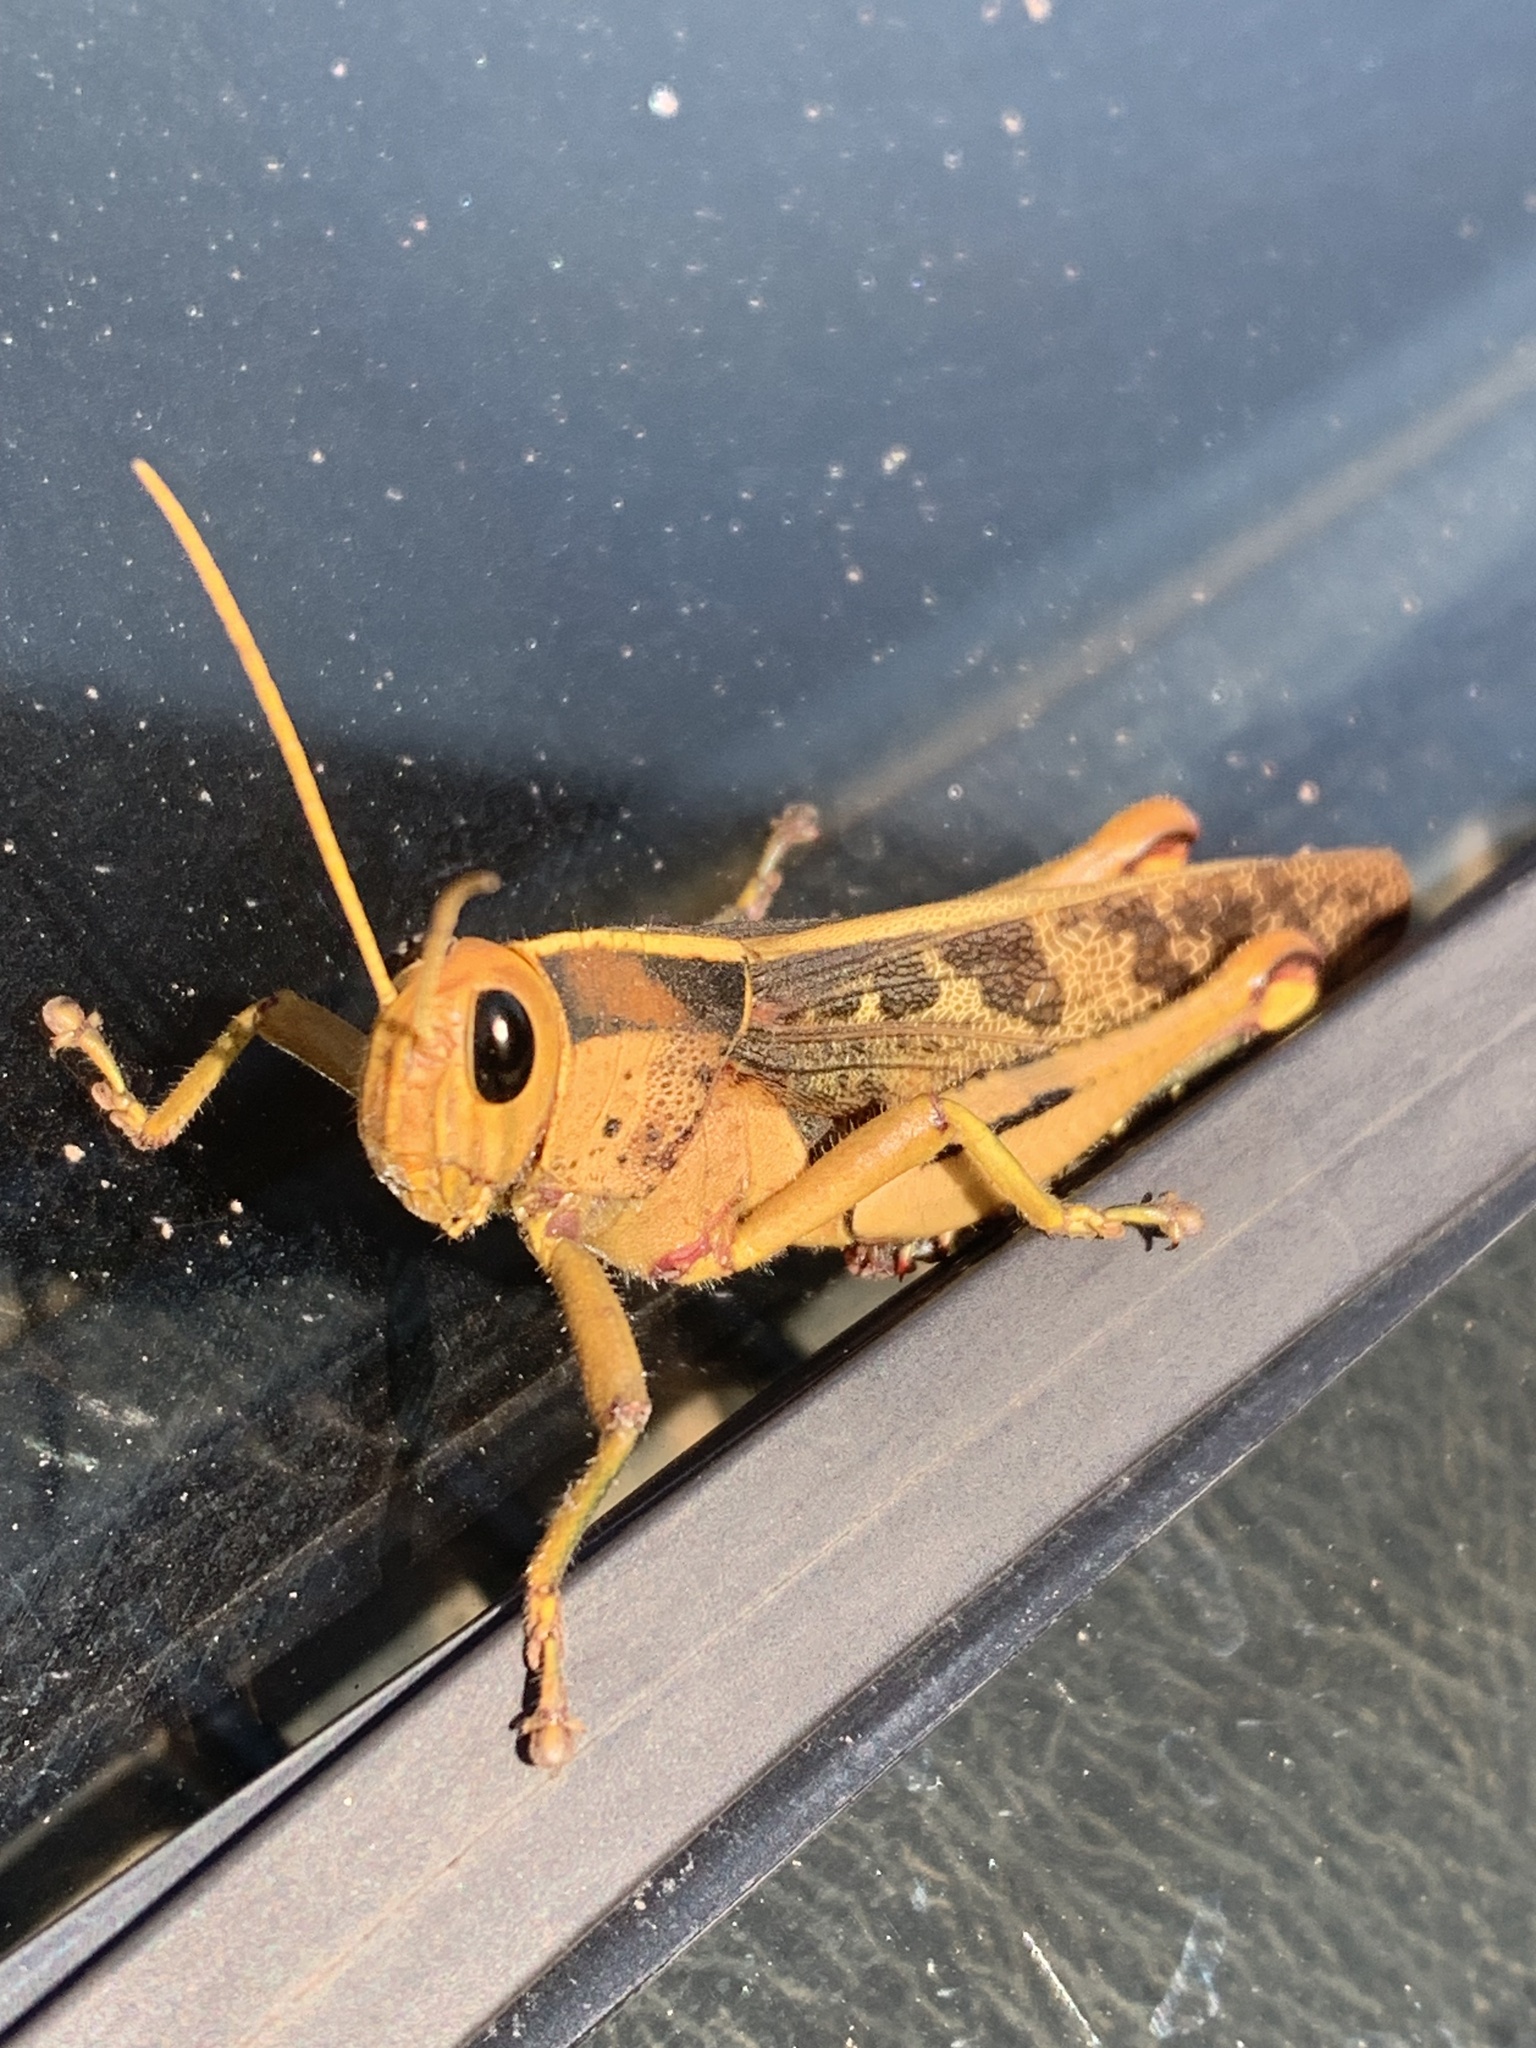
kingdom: Animalia
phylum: Arthropoda
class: Insecta
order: Orthoptera
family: Acrididae
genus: Acanthacris
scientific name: Acanthacris ruficornis
